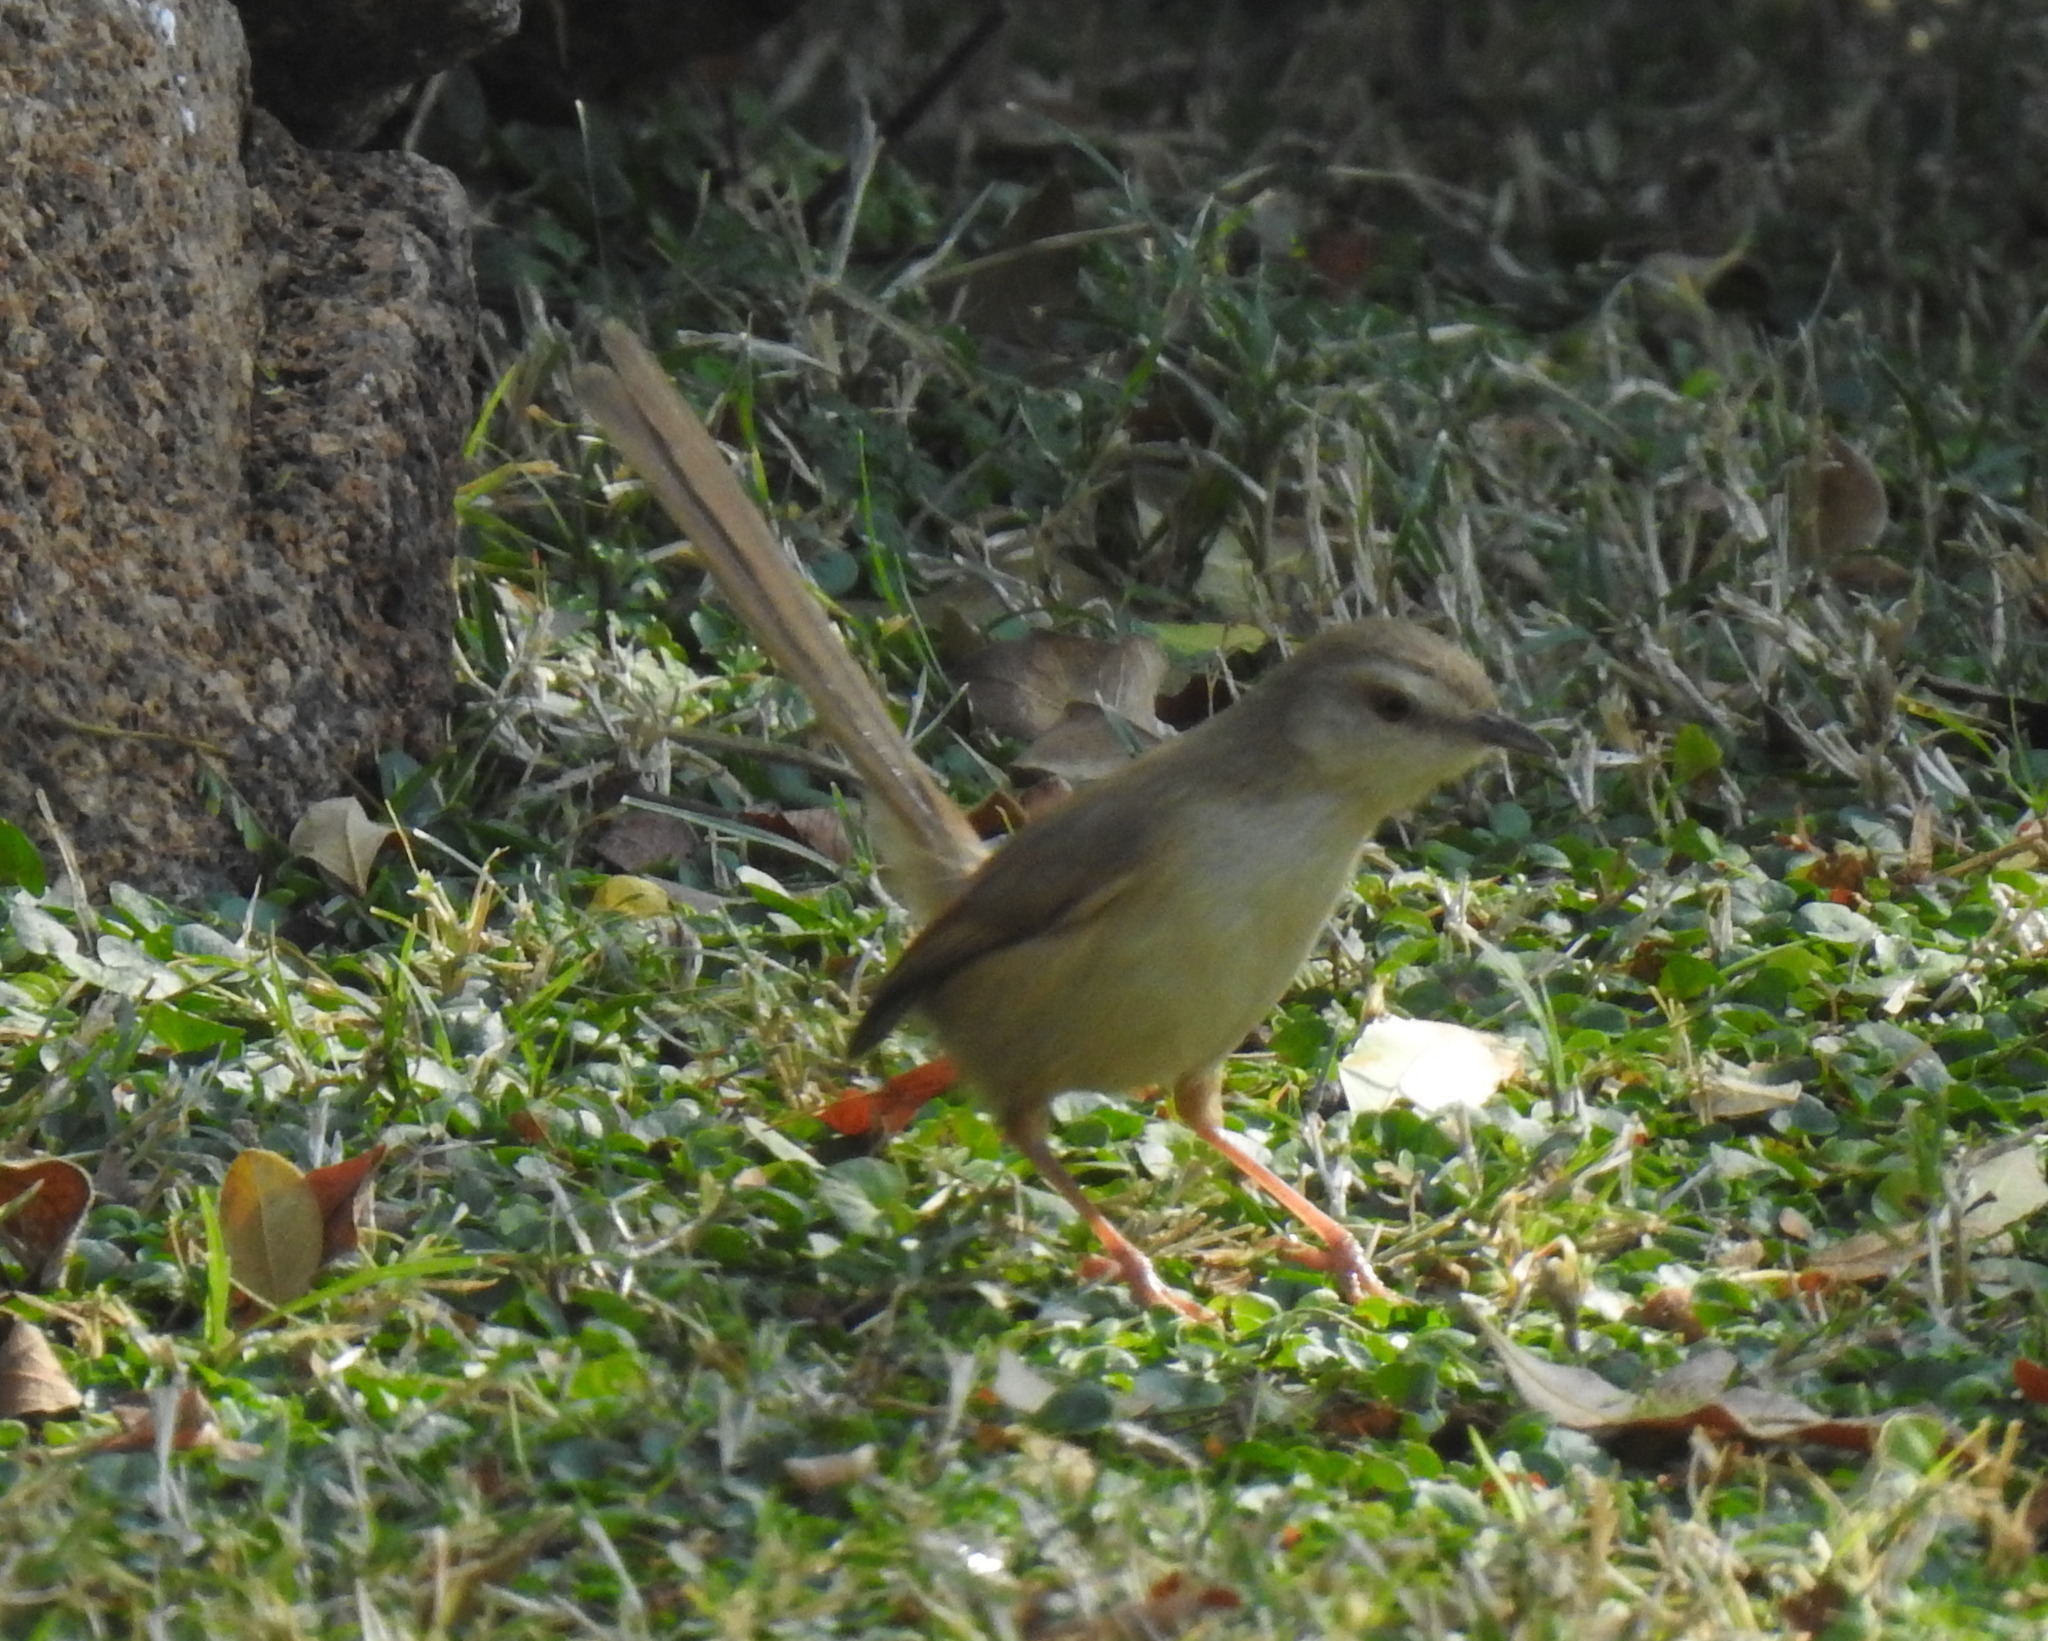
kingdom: Animalia
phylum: Chordata
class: Aves
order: Passeriformes
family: Cisticolidae
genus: Prinia
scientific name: Prinia subflava
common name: Tawny-flanked prinia
